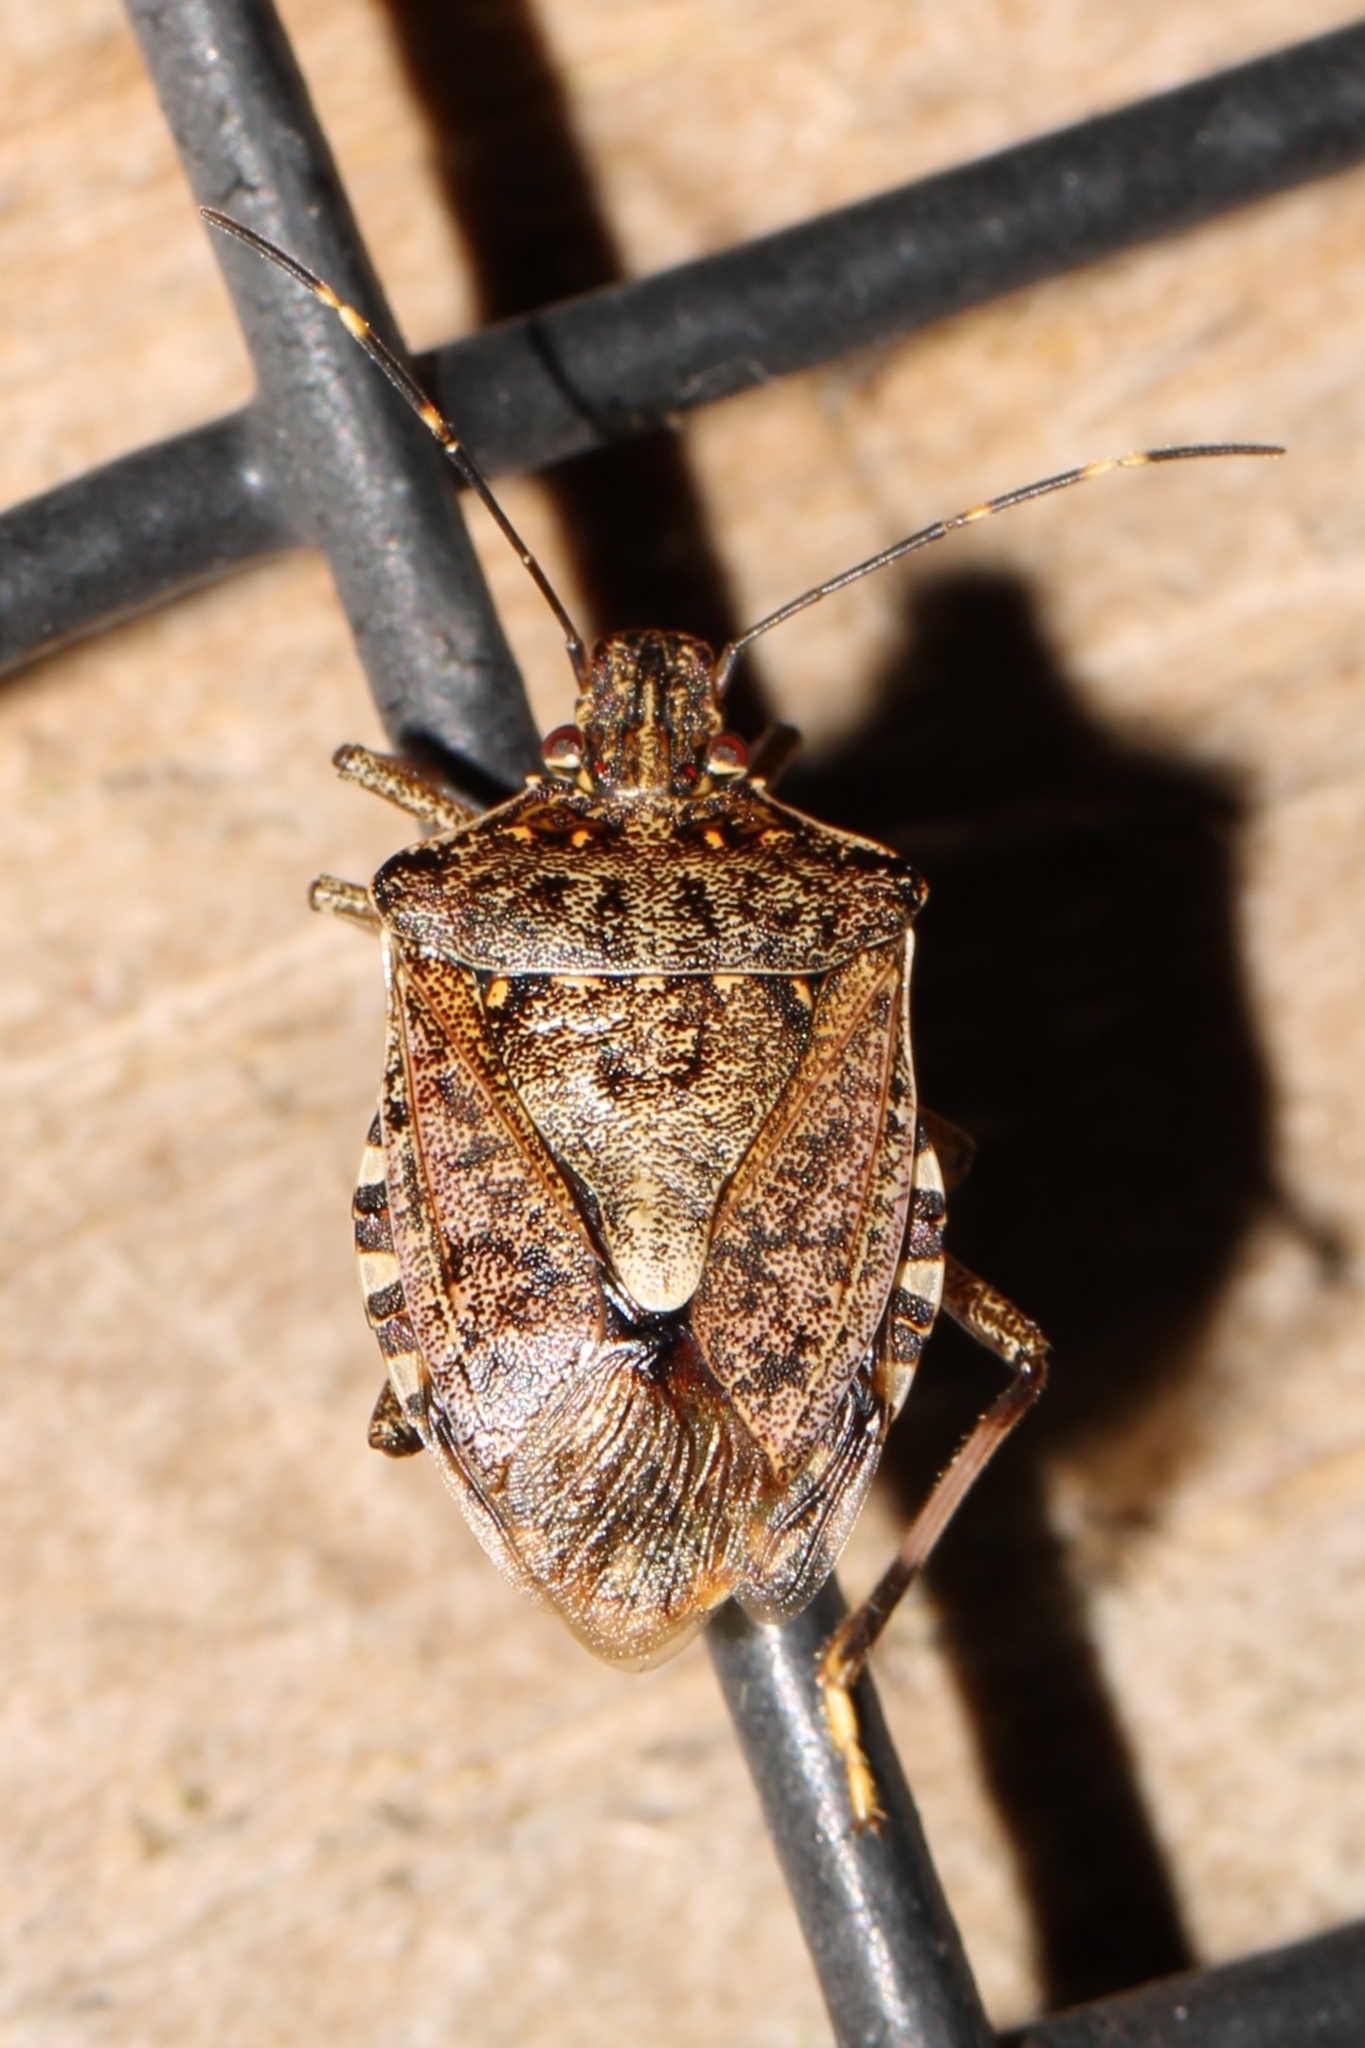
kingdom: Animalia
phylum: Arthropoda
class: Insecta
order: Hemiptera
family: Pentatomidae
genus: Halyomorpha
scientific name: Halyomorpha halys
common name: Brown marmorated stink bug
